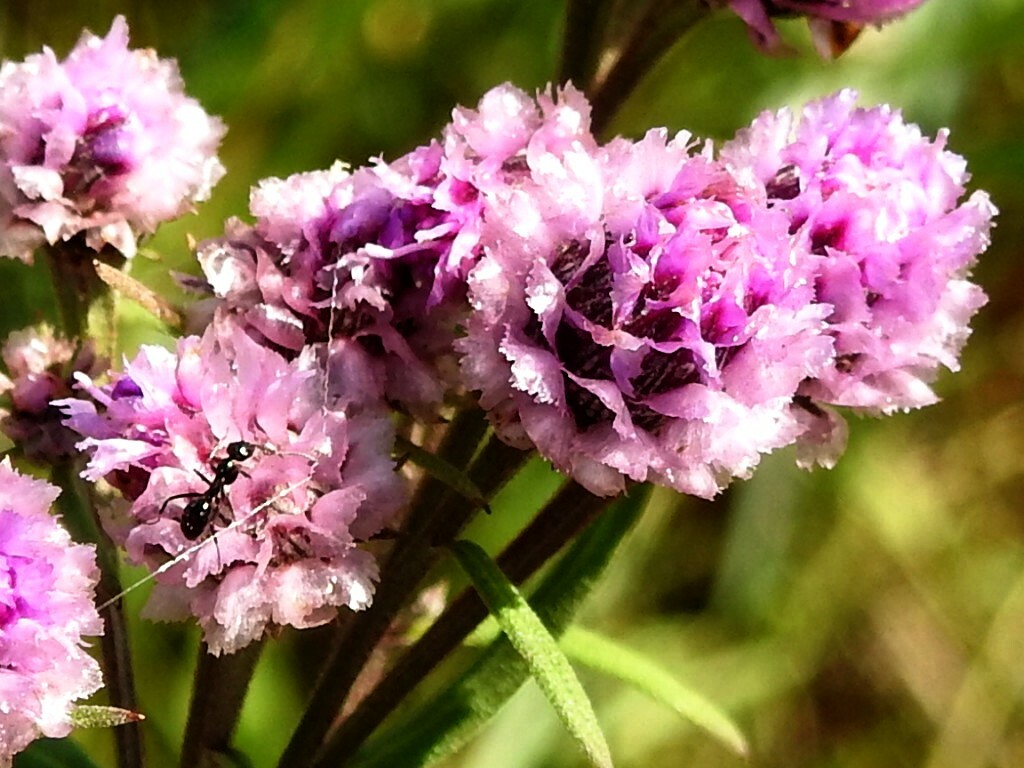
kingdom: Plantae
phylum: Tracheophyta
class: Magnoliopsida
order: Asterales
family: Asteraceae
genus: Saussurea
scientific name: Saussurea pulchella
